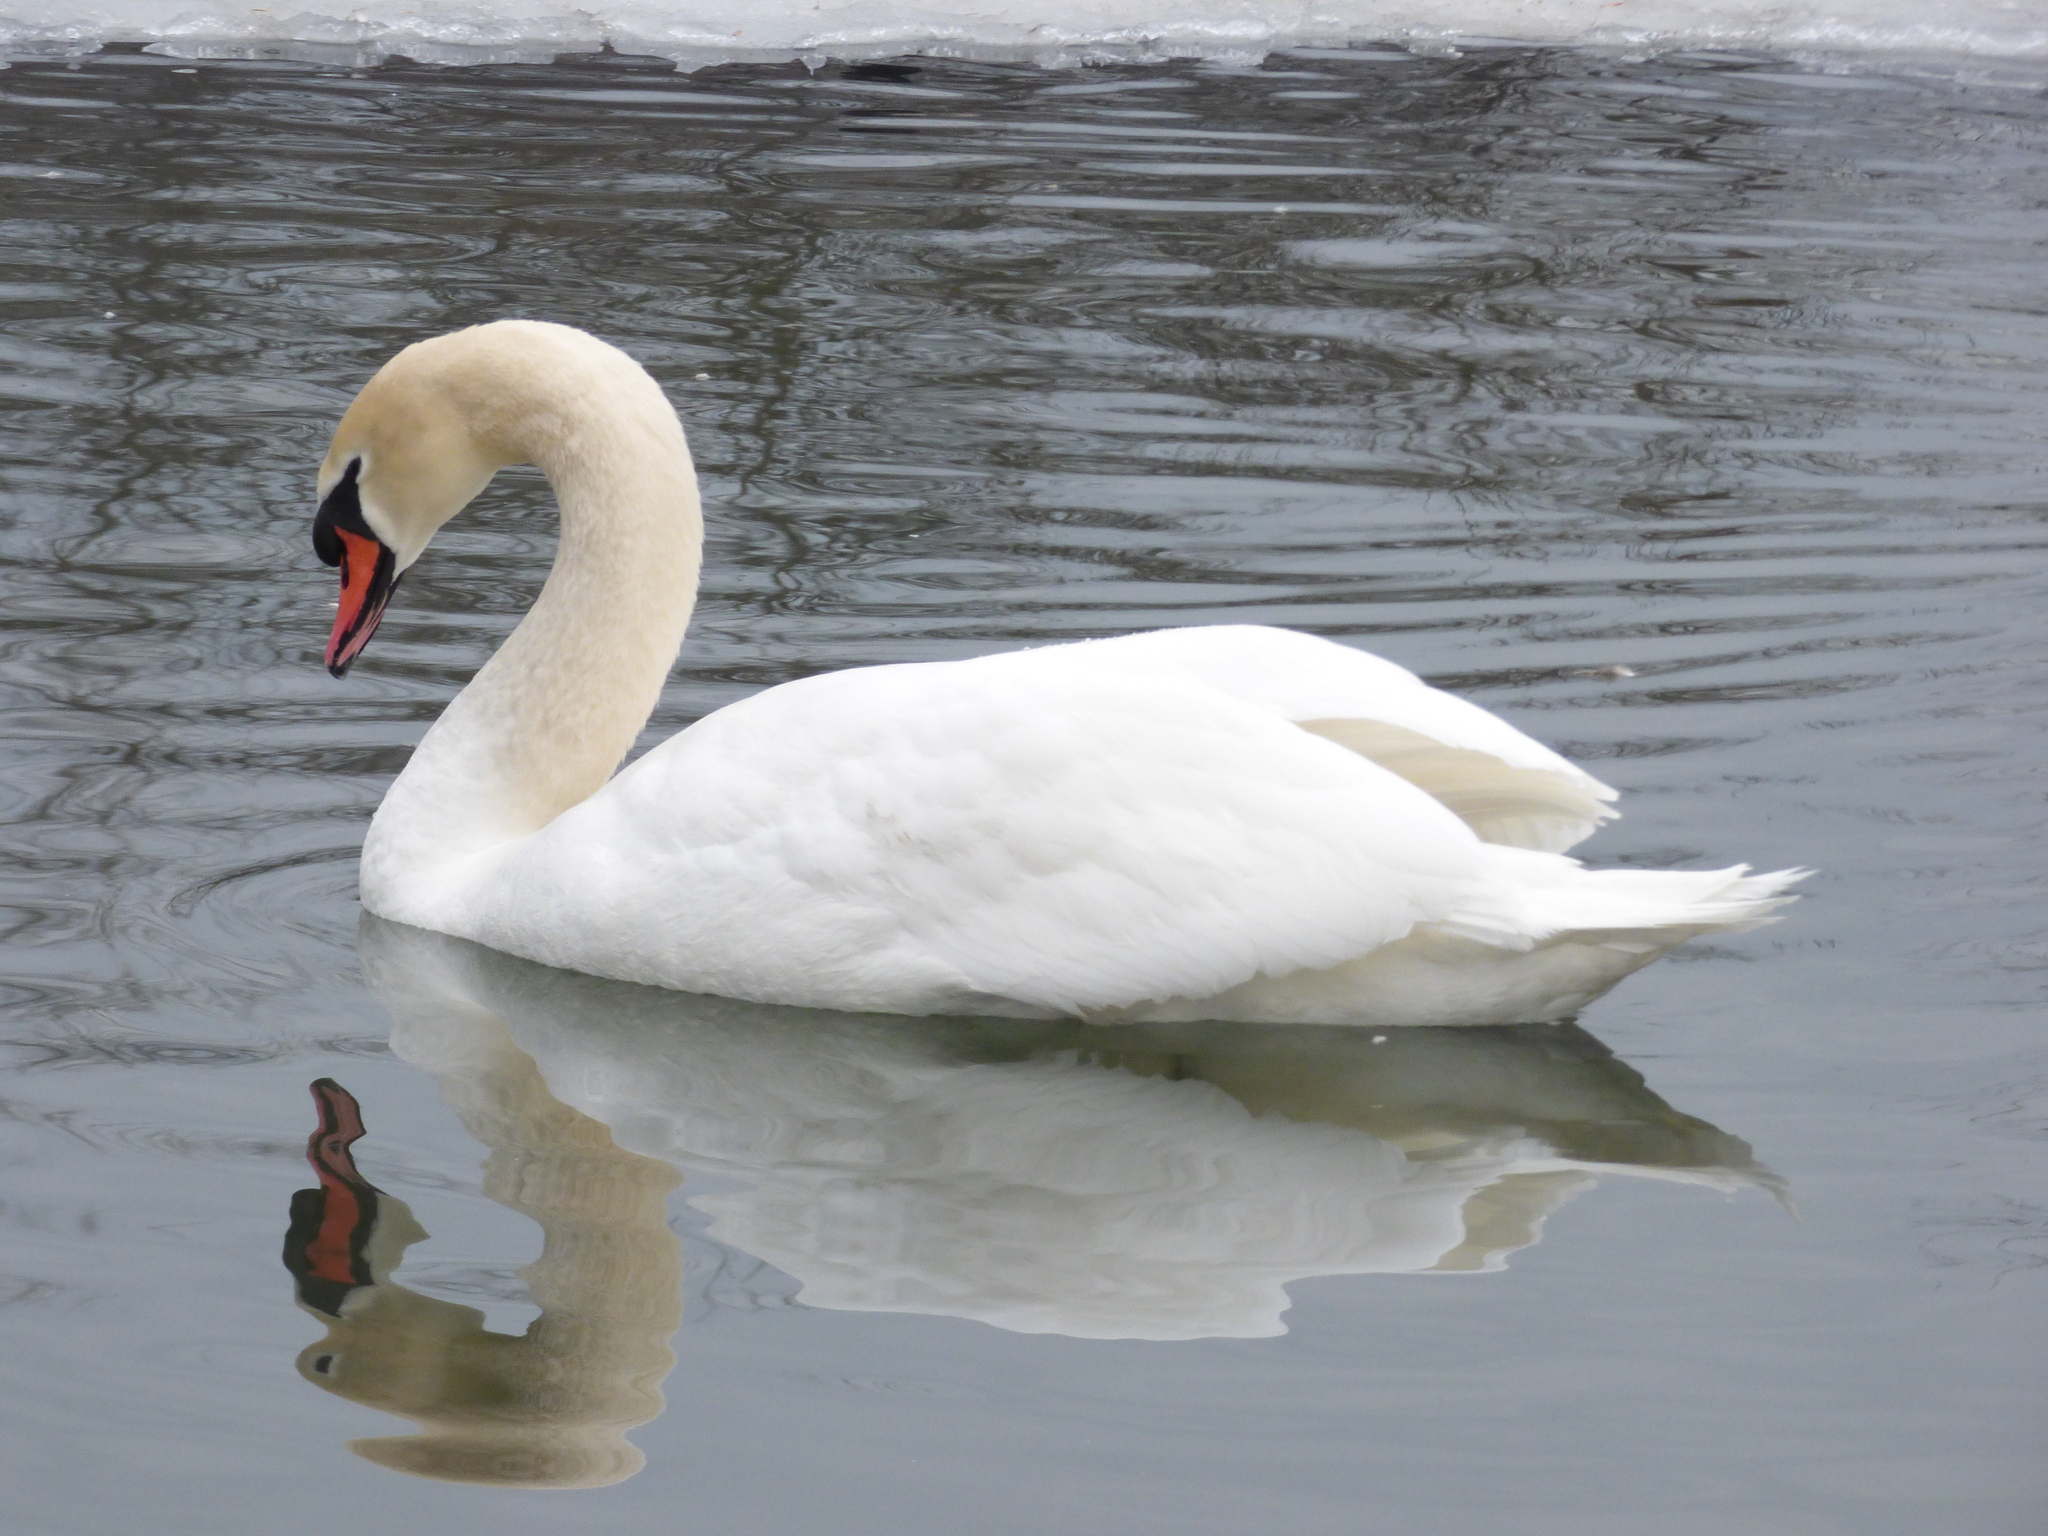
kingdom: Animalia
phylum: Chordata
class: Aves
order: Anseriformes
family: Anatidae
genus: Cygnus
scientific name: Cygnus olor
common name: Mute swan
